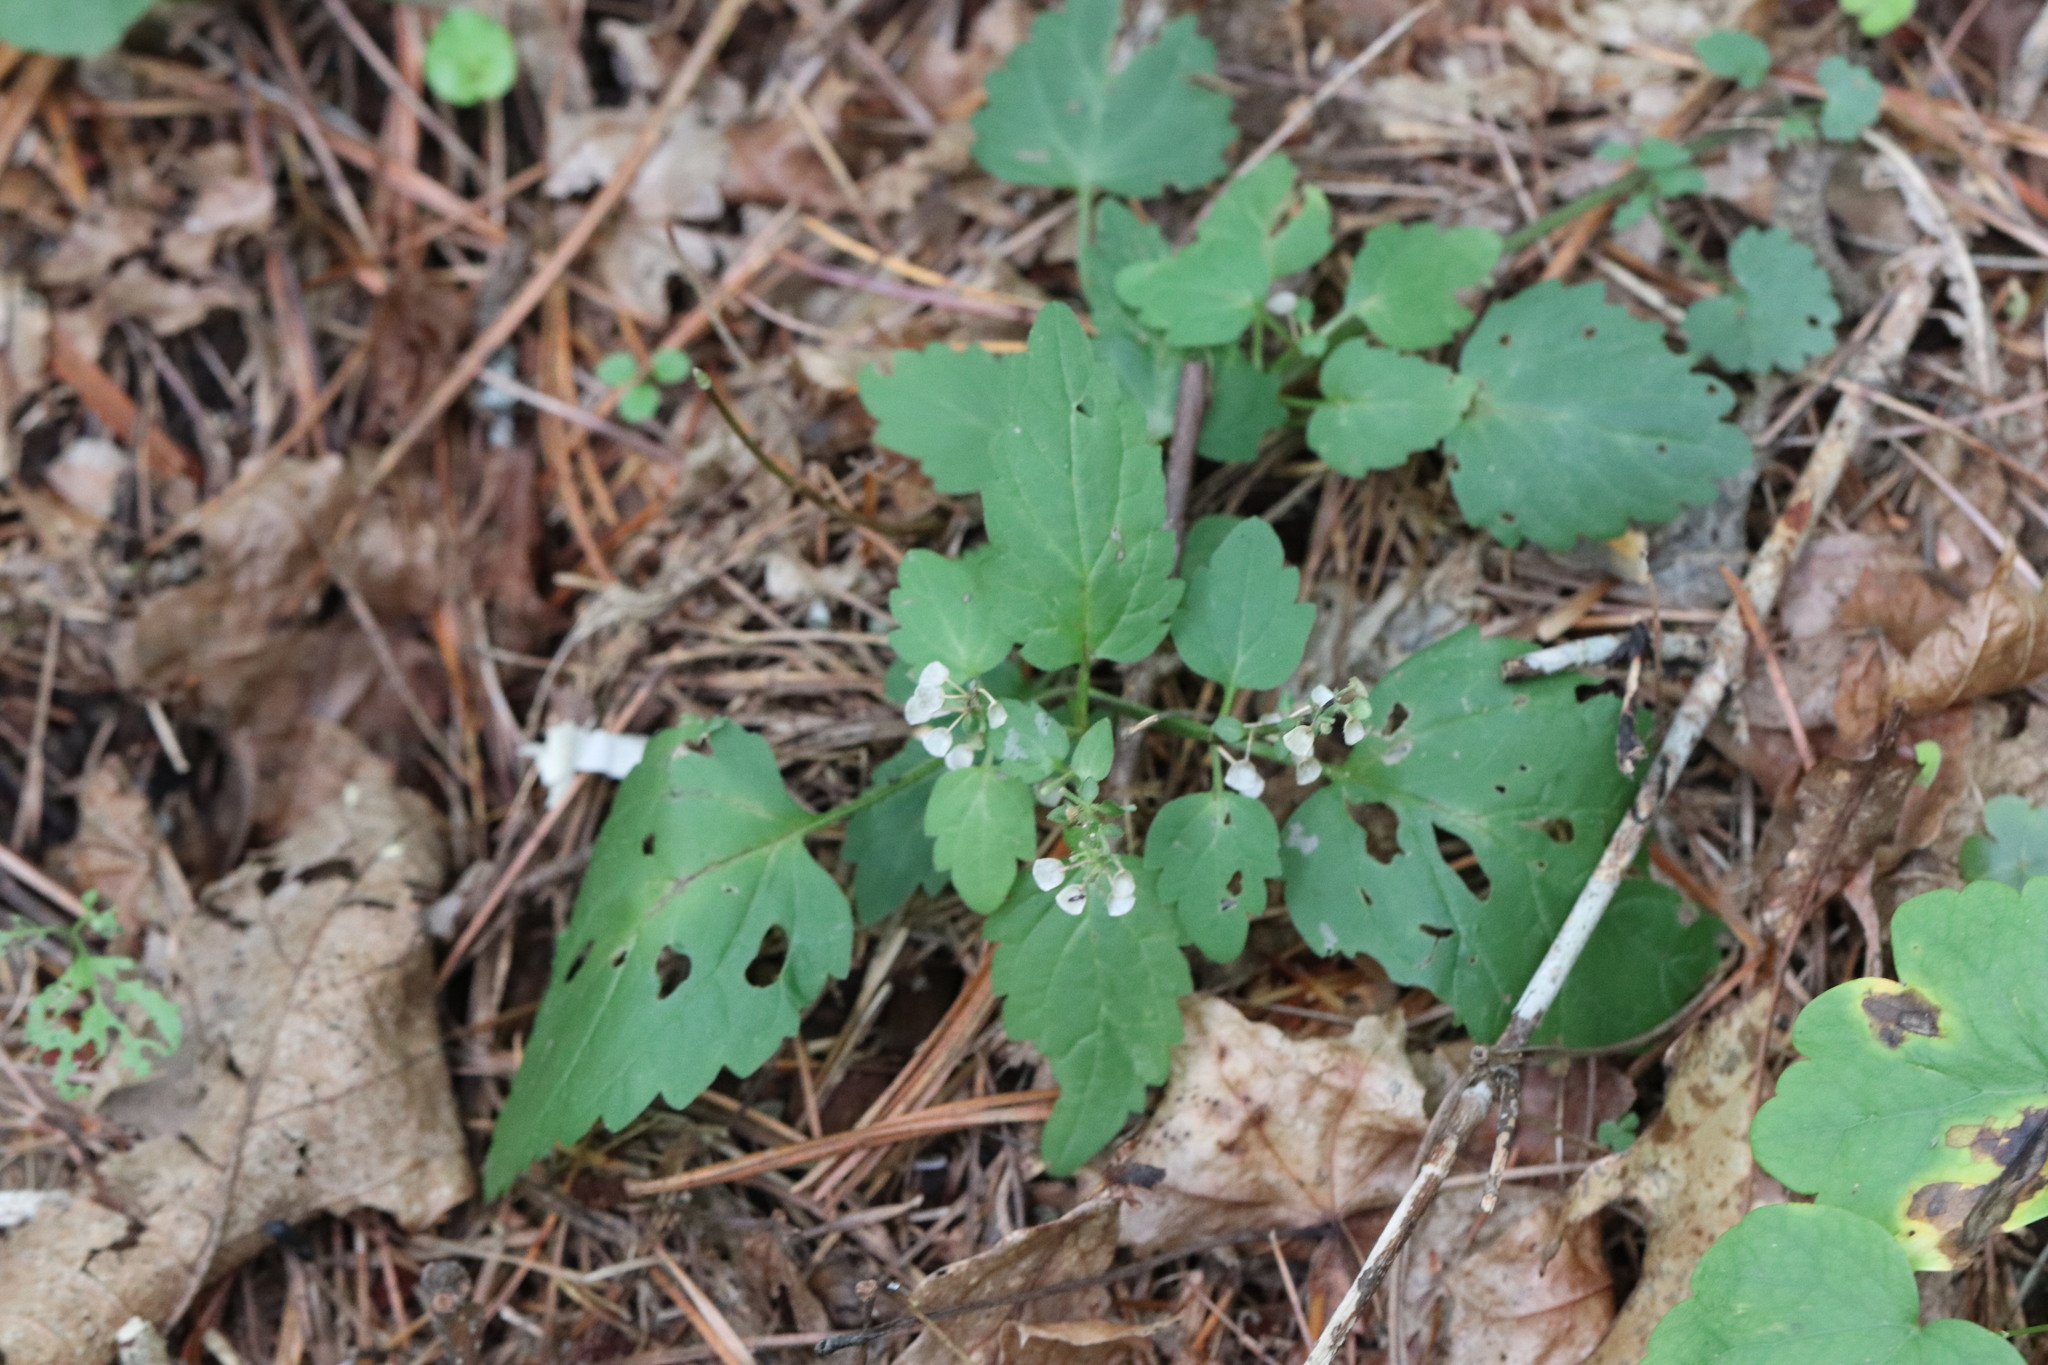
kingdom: Plantae
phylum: Tracheophyta
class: Magnoliopsida
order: Lamiales
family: Lamiaceae
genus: Scutellaria
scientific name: Scutellaria pekinensis
